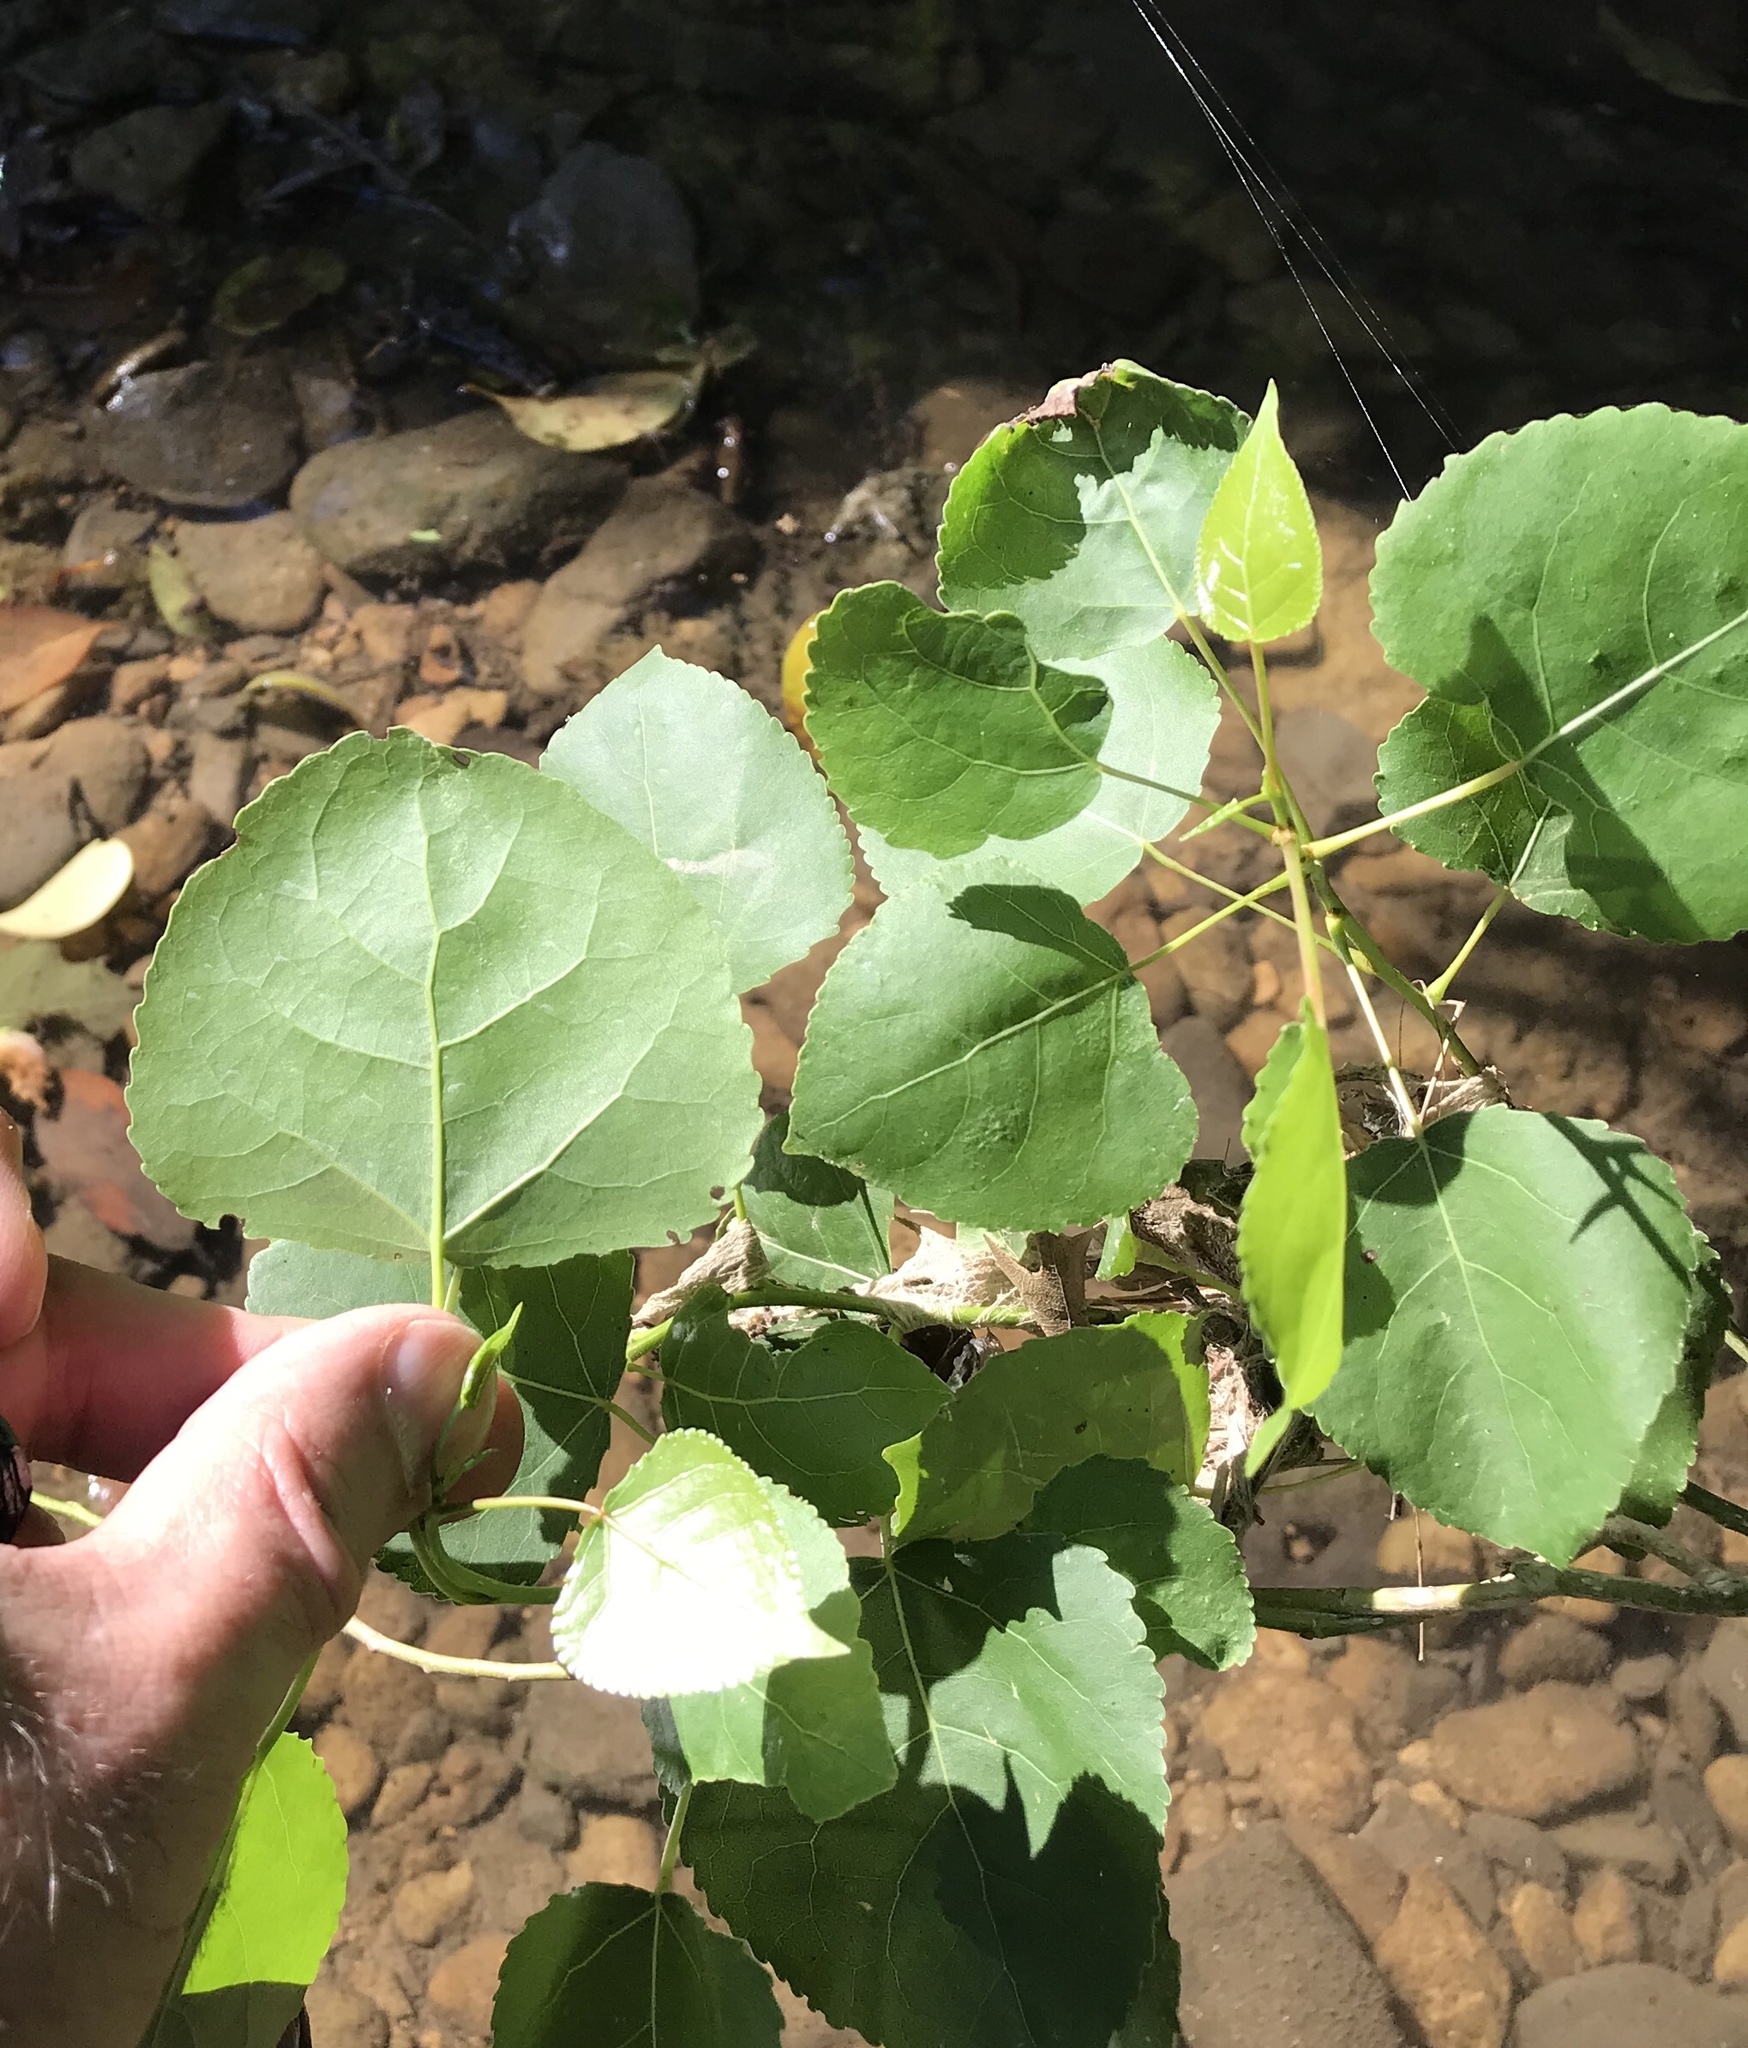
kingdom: Plantae
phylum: Tracheophyta
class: Magnoliopsida
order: Malpighiales
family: Salicaceae
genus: Populus
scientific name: Populus deltoides
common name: Eastern cottonwood
